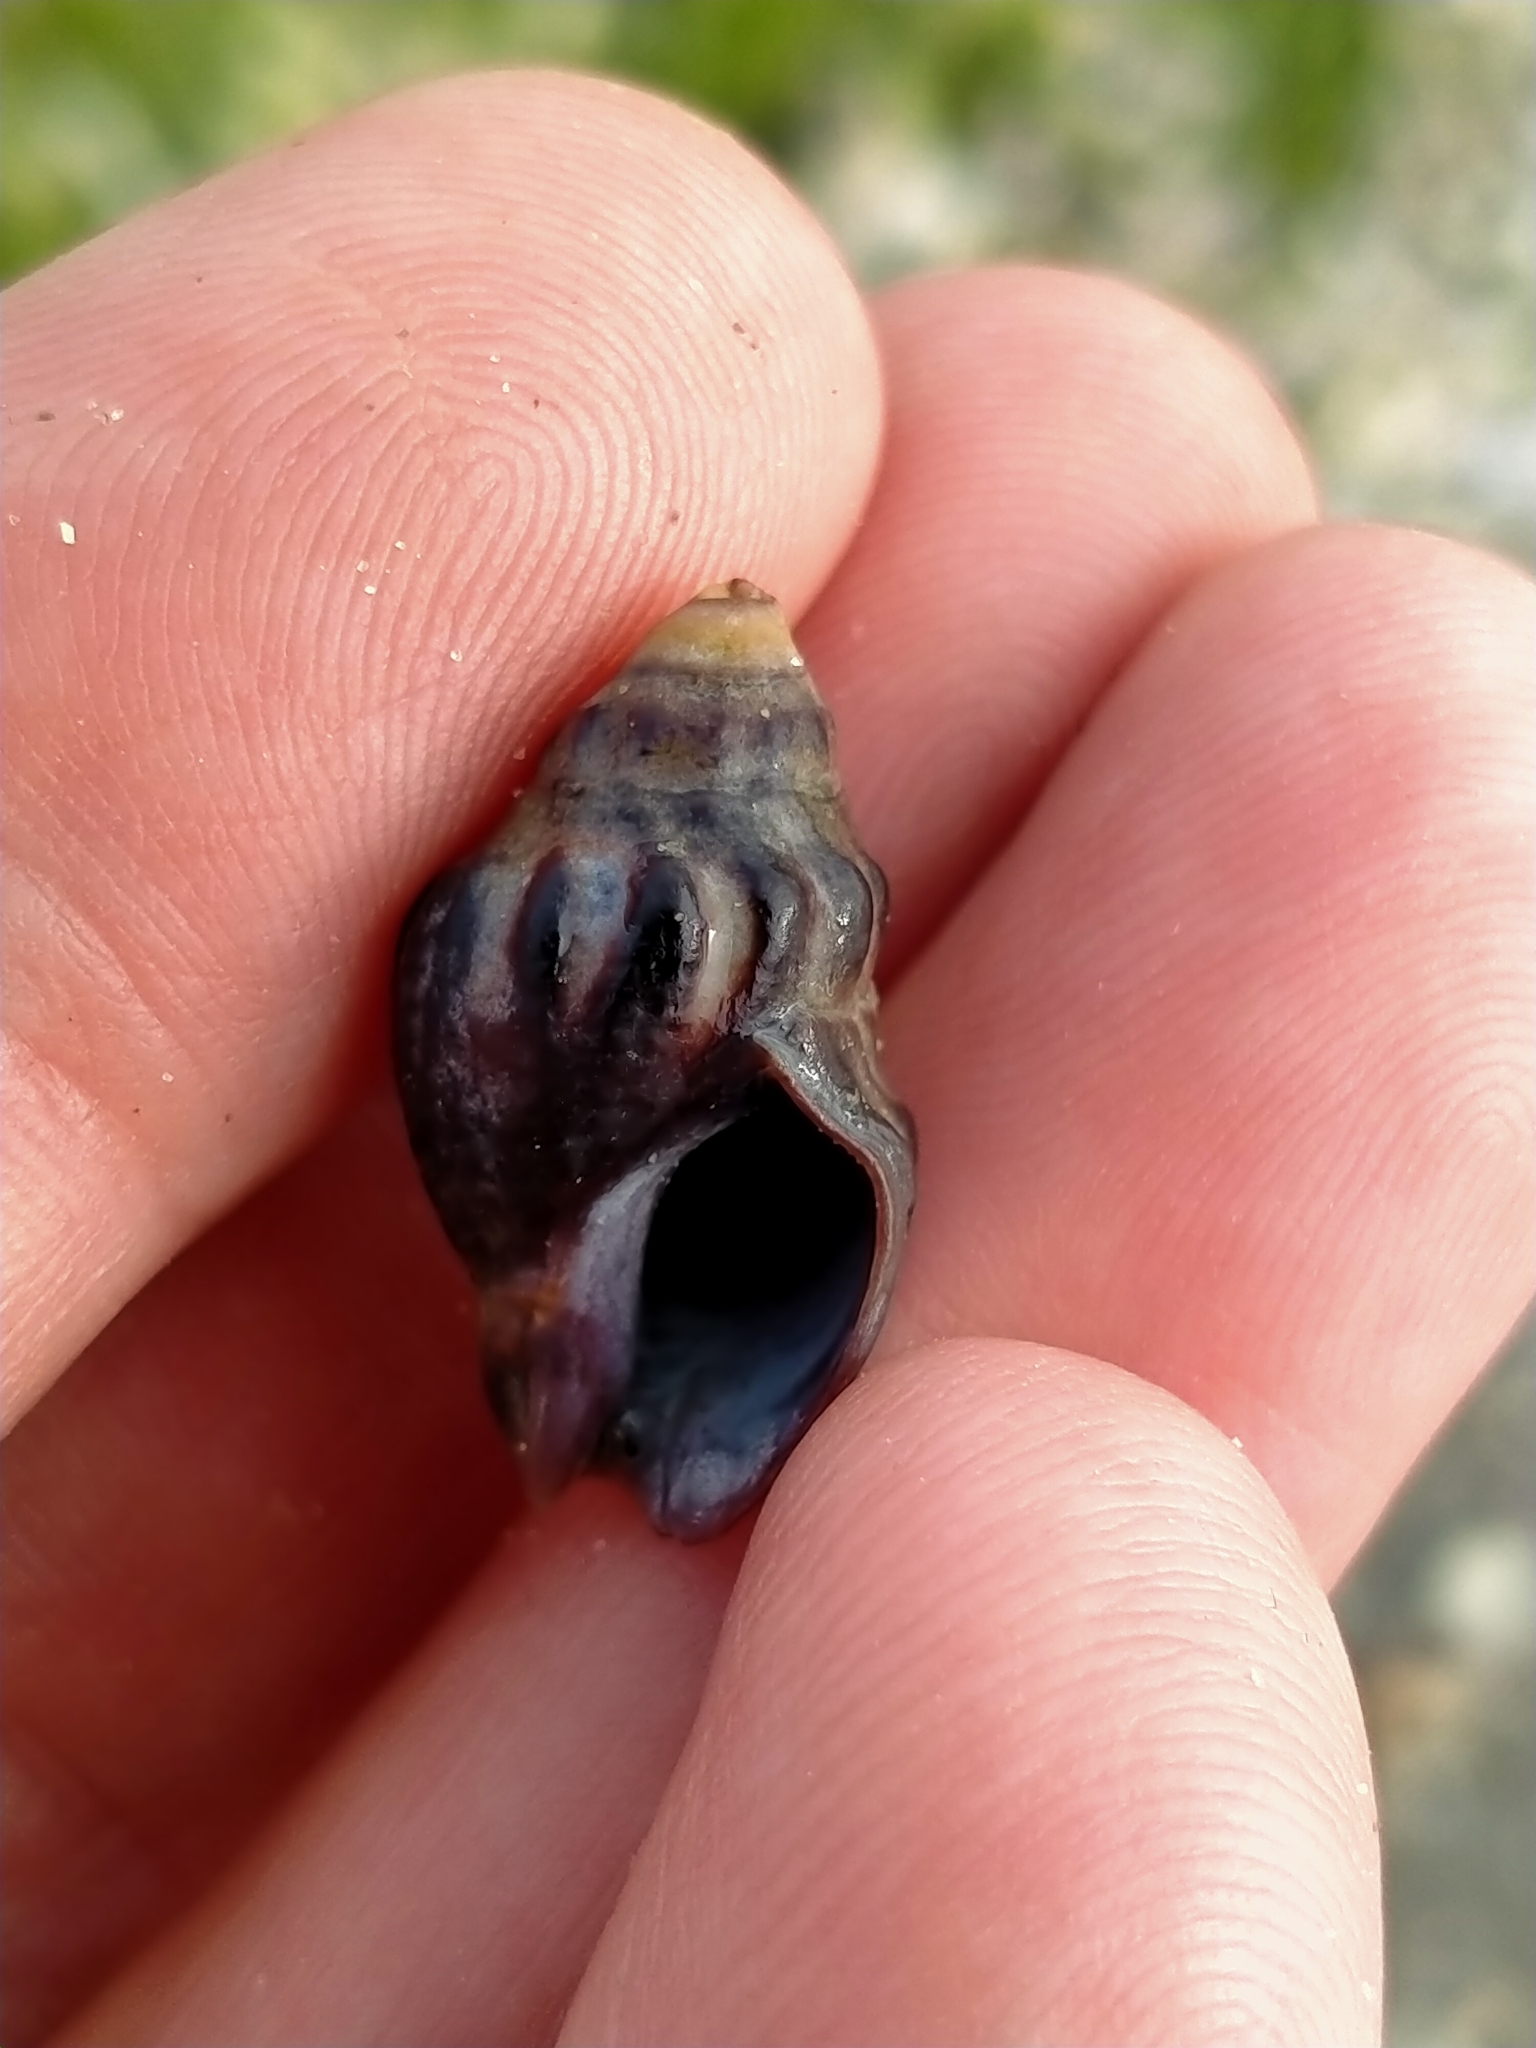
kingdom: Animalia
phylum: Mollusca
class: Gastropoda
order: Neogastropoda
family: Cominellidae
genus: Cominella
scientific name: Cominella glandiformis
